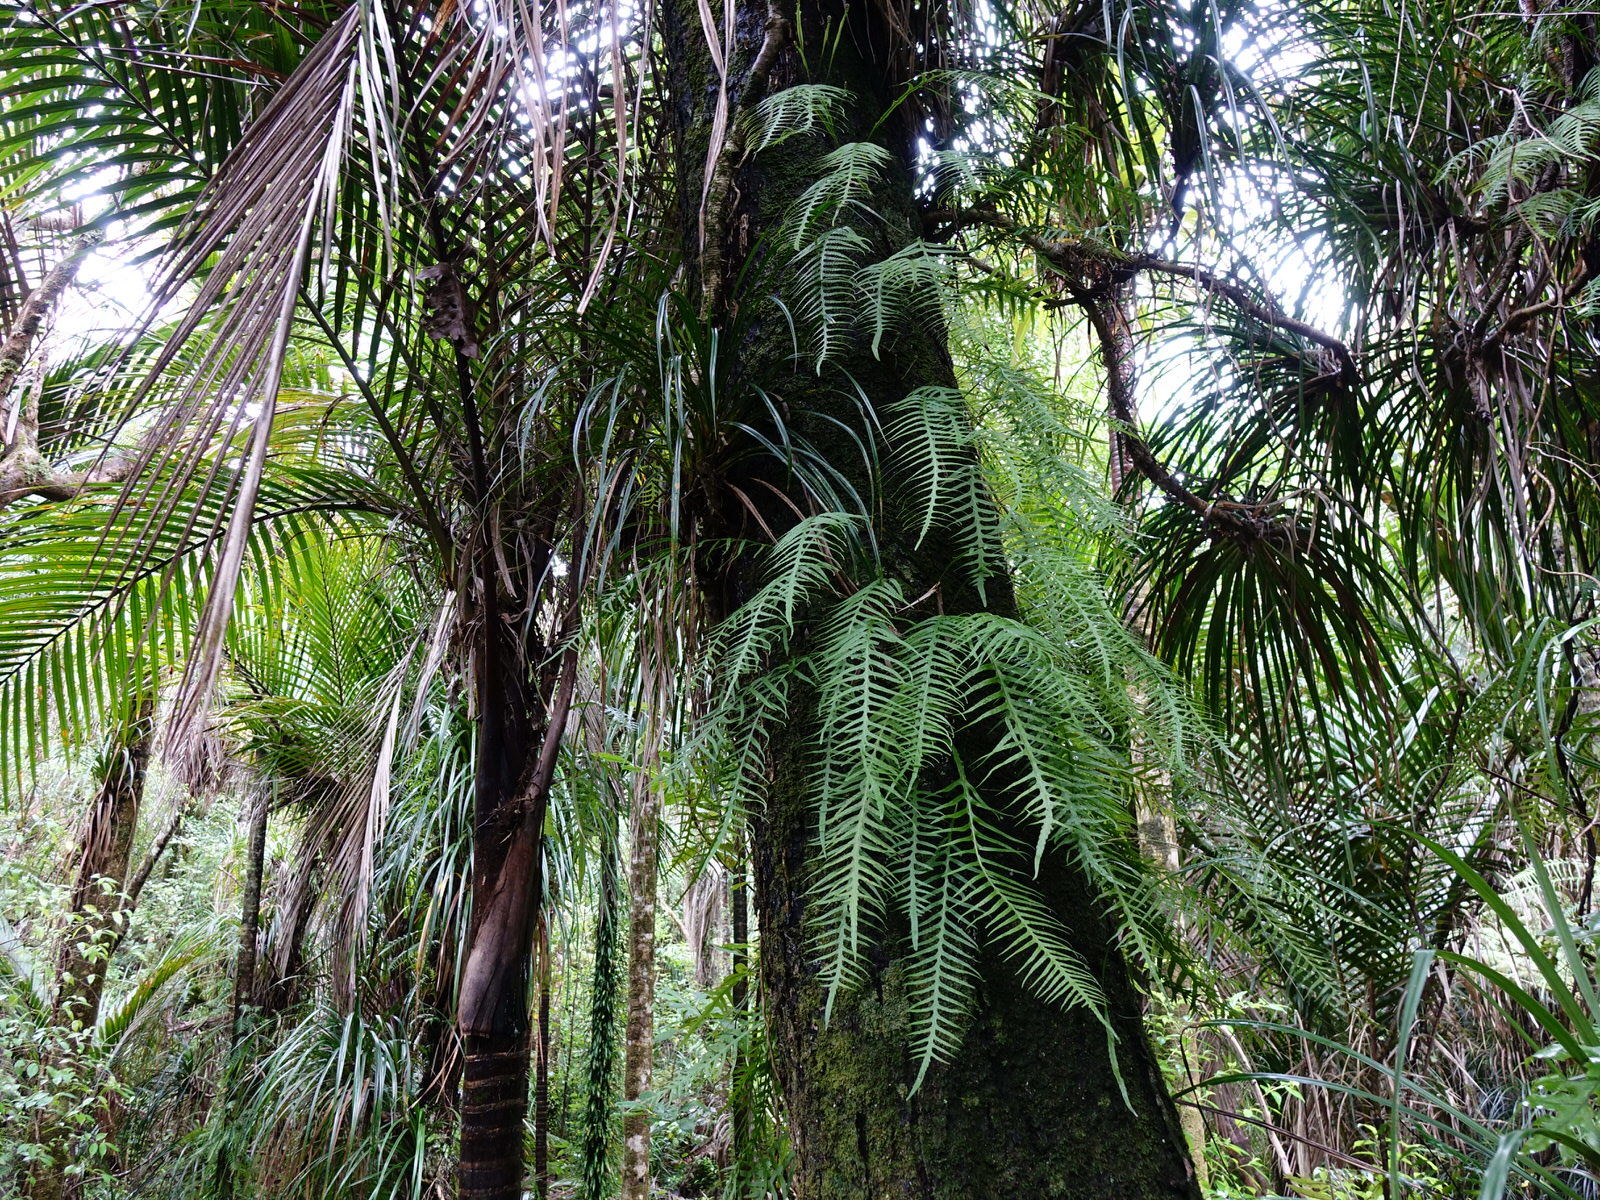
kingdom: Plantae
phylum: Tracheophyta
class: Polypodiopsida
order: Polypodiales
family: Polypodiaceae
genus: Lecanopteris
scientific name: Lecanopteris scandens
